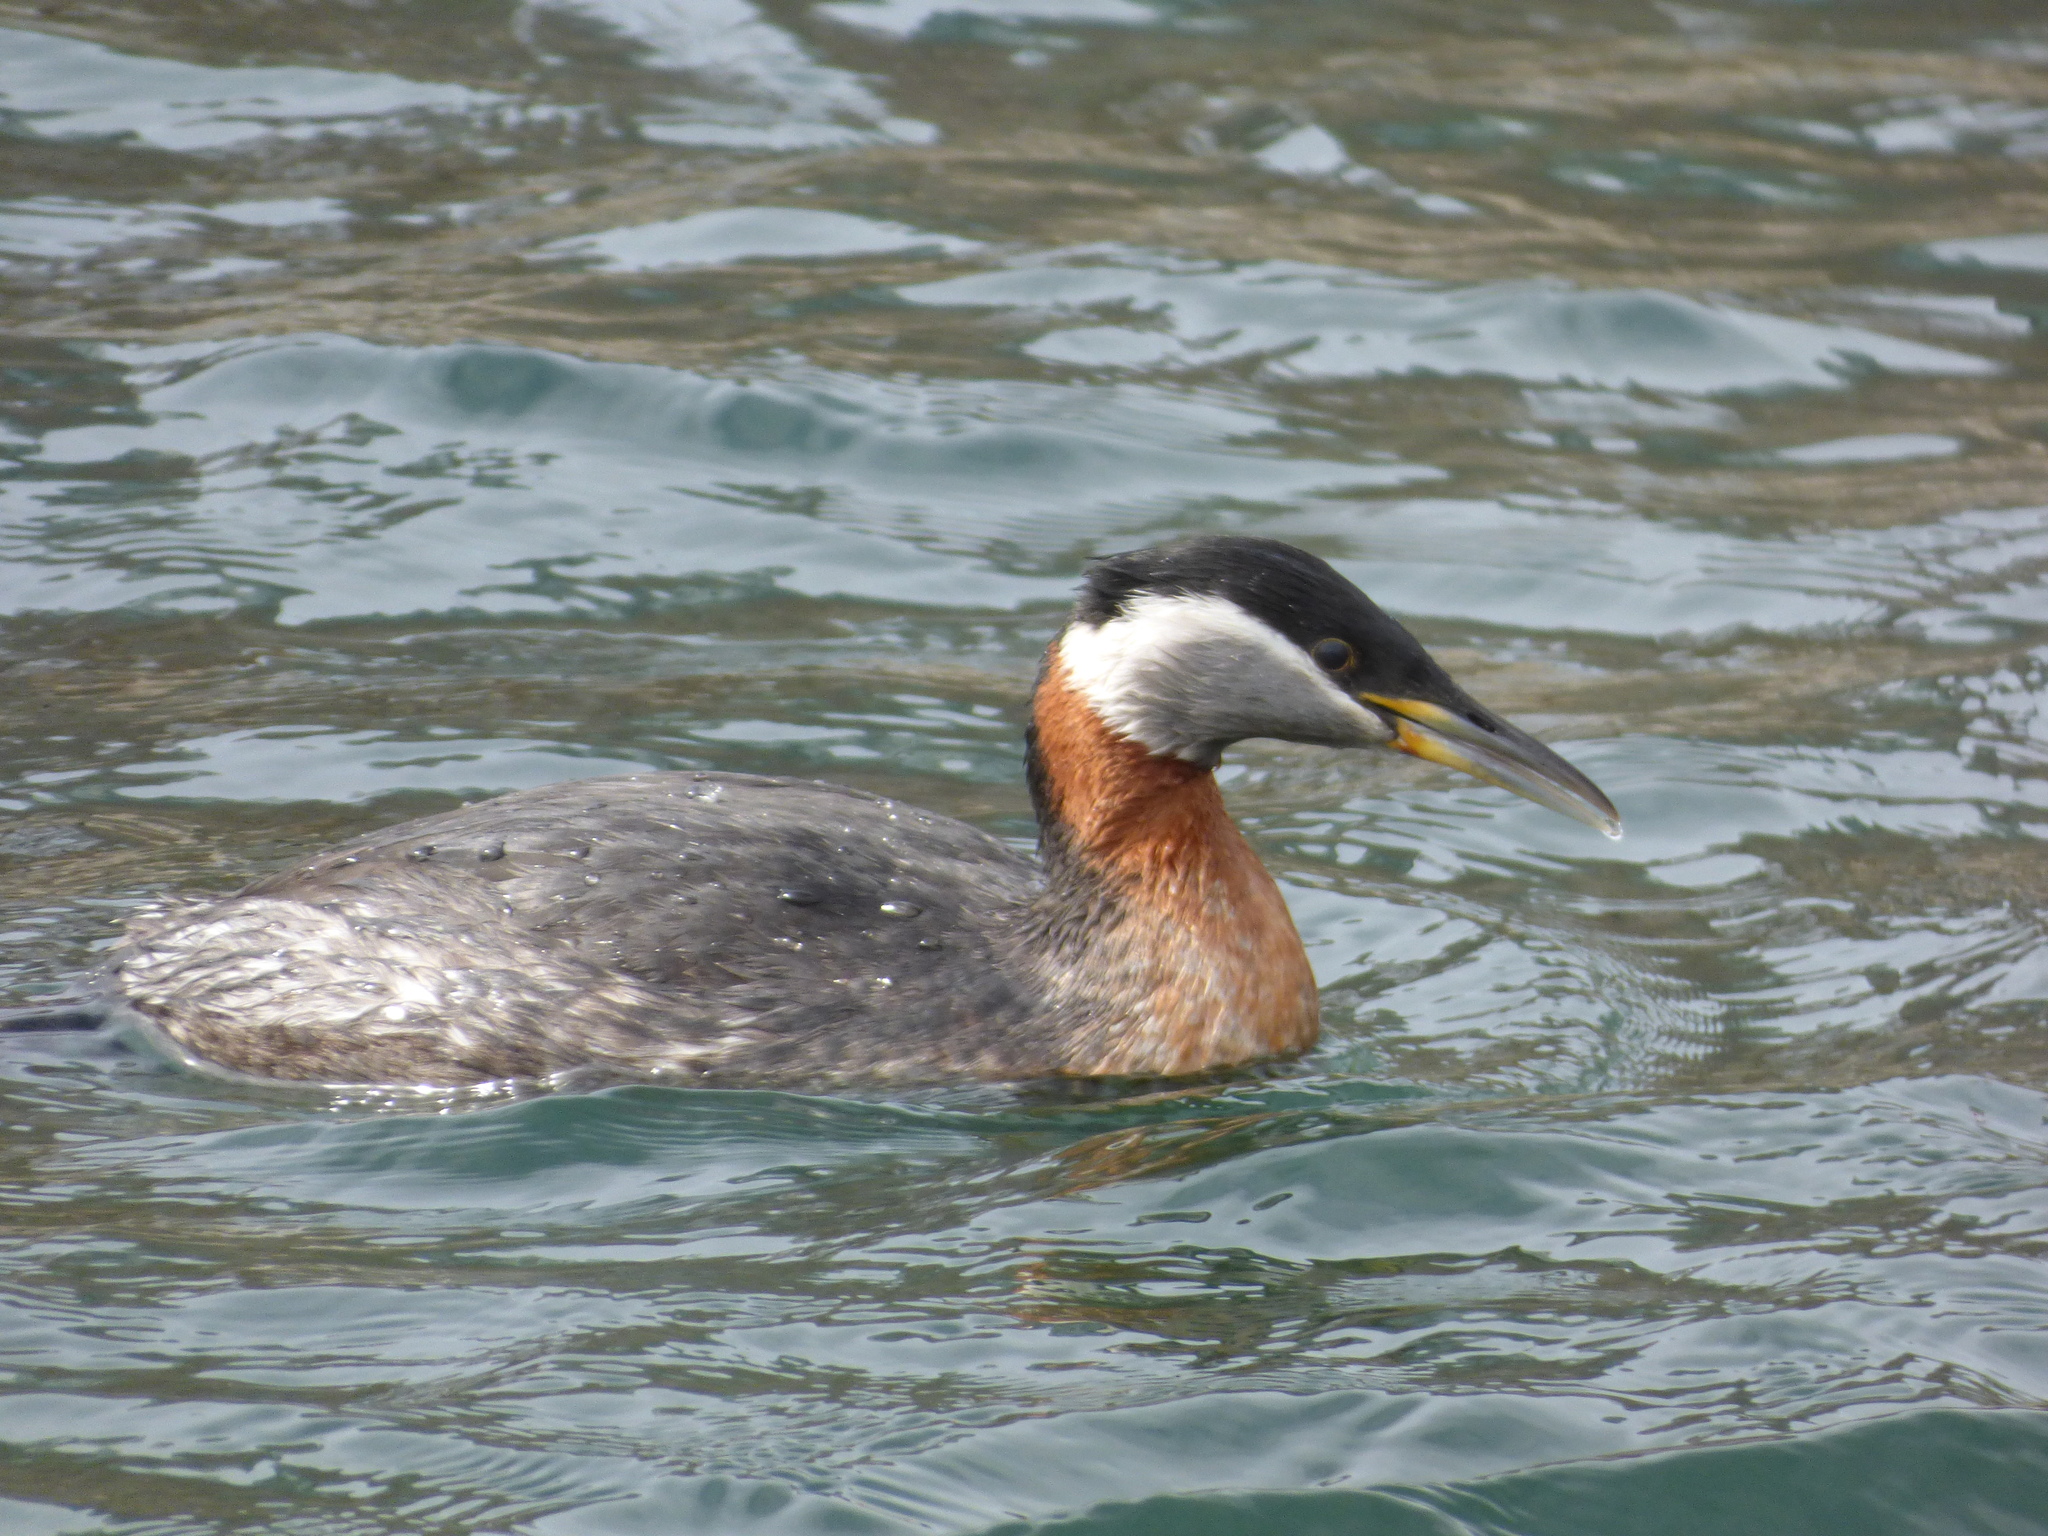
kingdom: Animalia
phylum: Chordata
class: Aves
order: Podicipediformes
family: Podicipedidae
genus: Podiceps
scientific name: Podiceps grisegena
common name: Red-necked grebe
